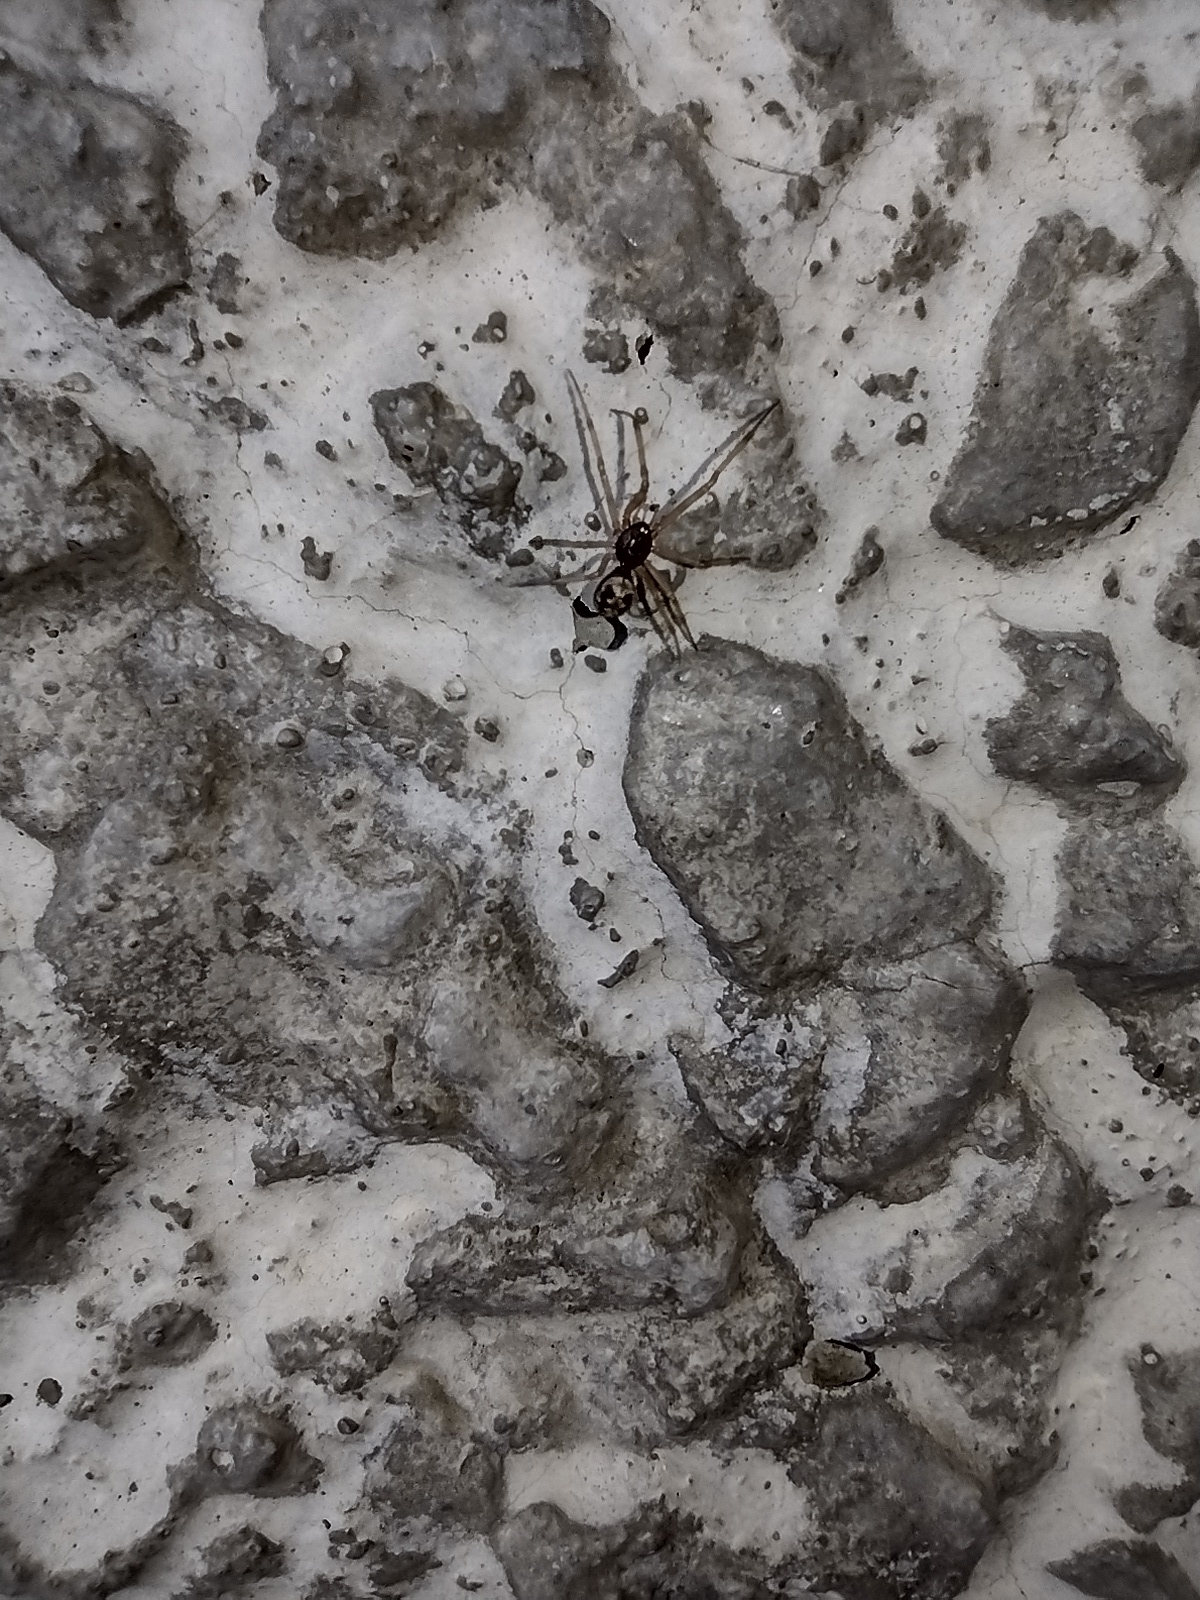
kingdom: Animalia
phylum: Arthropoda
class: Arachnida
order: Araneae
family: Theridiidae
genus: Steatoda
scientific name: Steatoda triangulosa
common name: Triangulate bud spider
